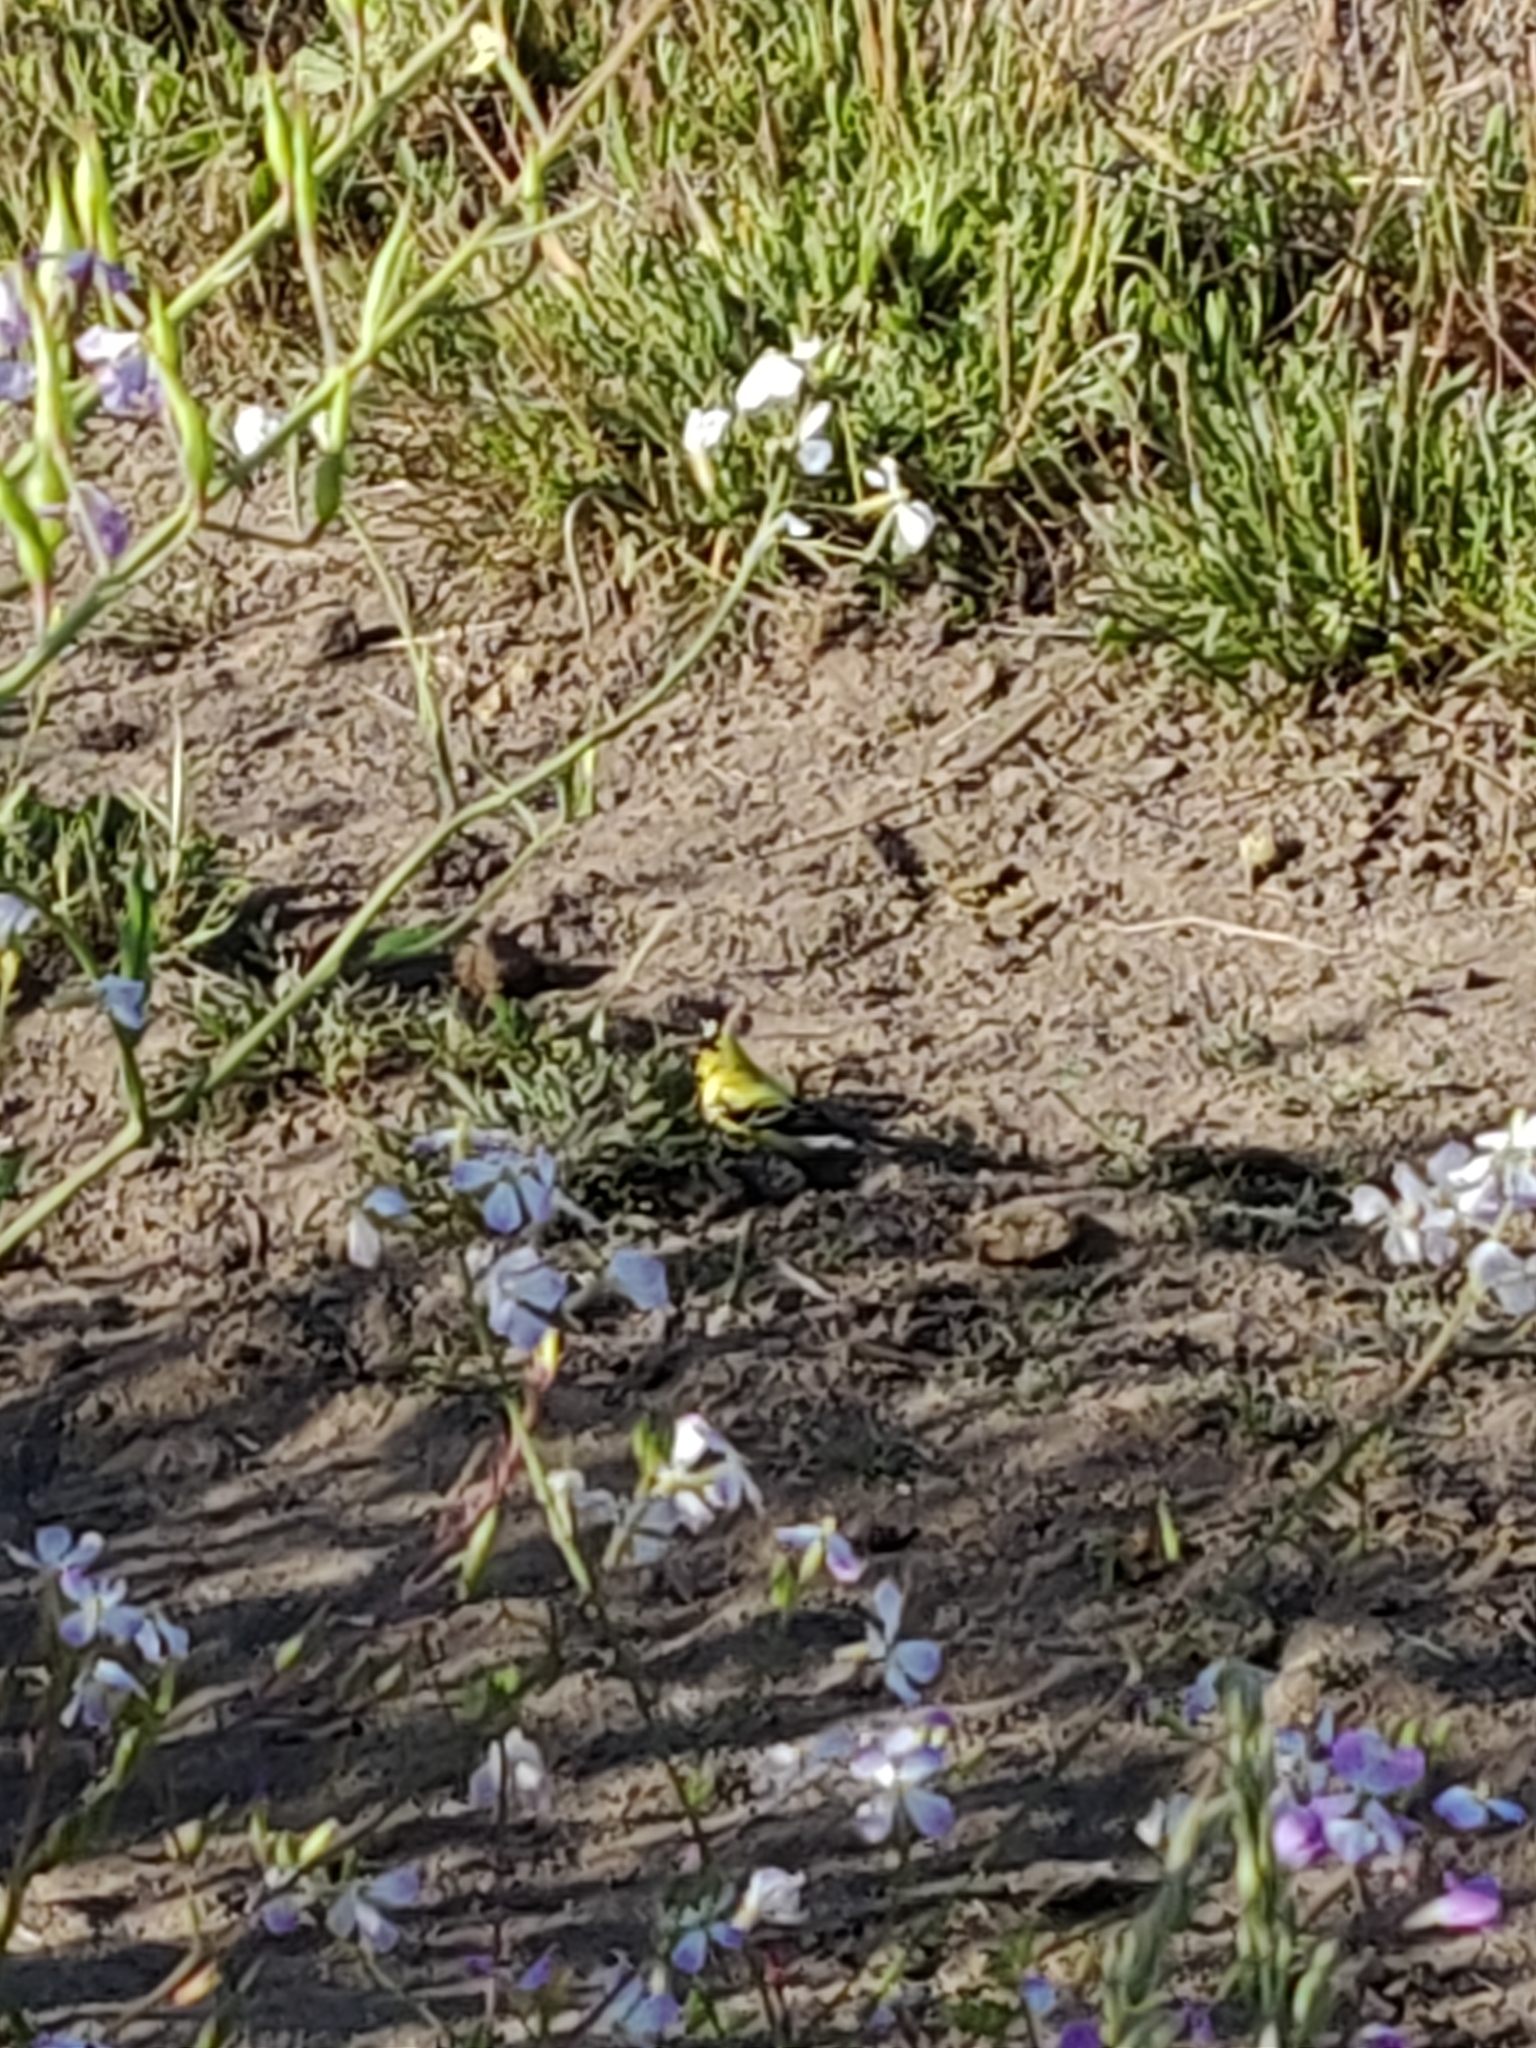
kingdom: Animalia
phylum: Chordata
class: Aves
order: Passeriformes
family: Fringillidae
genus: Spinus
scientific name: Spinus tristis
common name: American goldfinch
